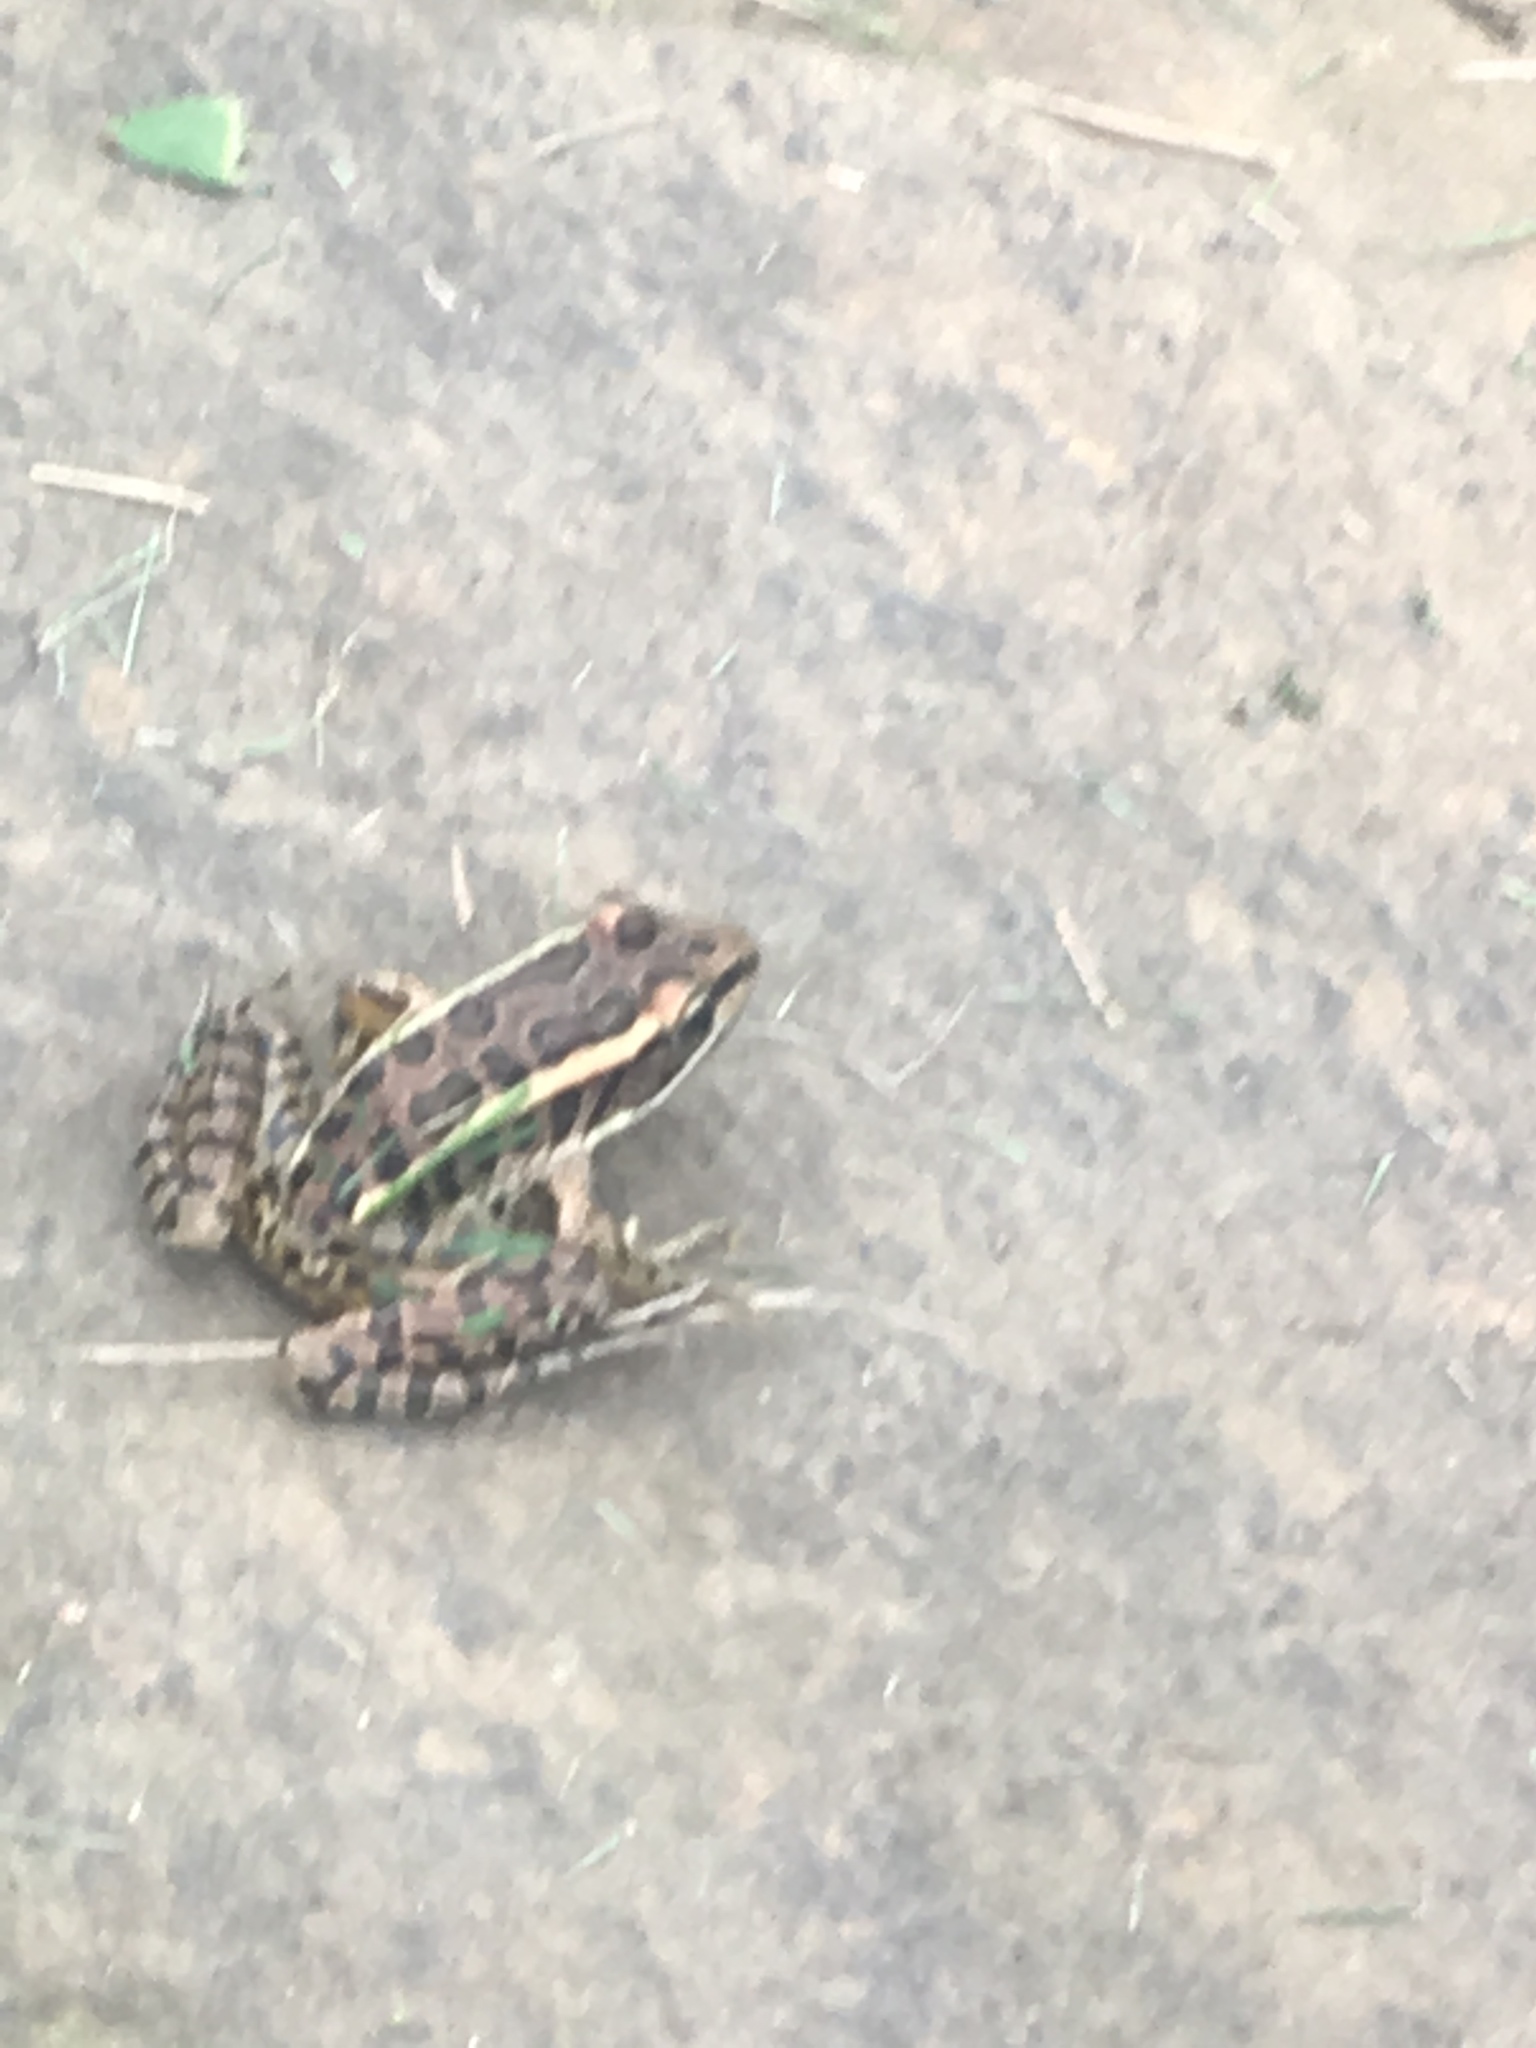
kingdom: Animalia
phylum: Chordata
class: Amphibia
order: Anura
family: Ranidae
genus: Lithobates
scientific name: Lithobates palustris
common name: Pickerel frog
